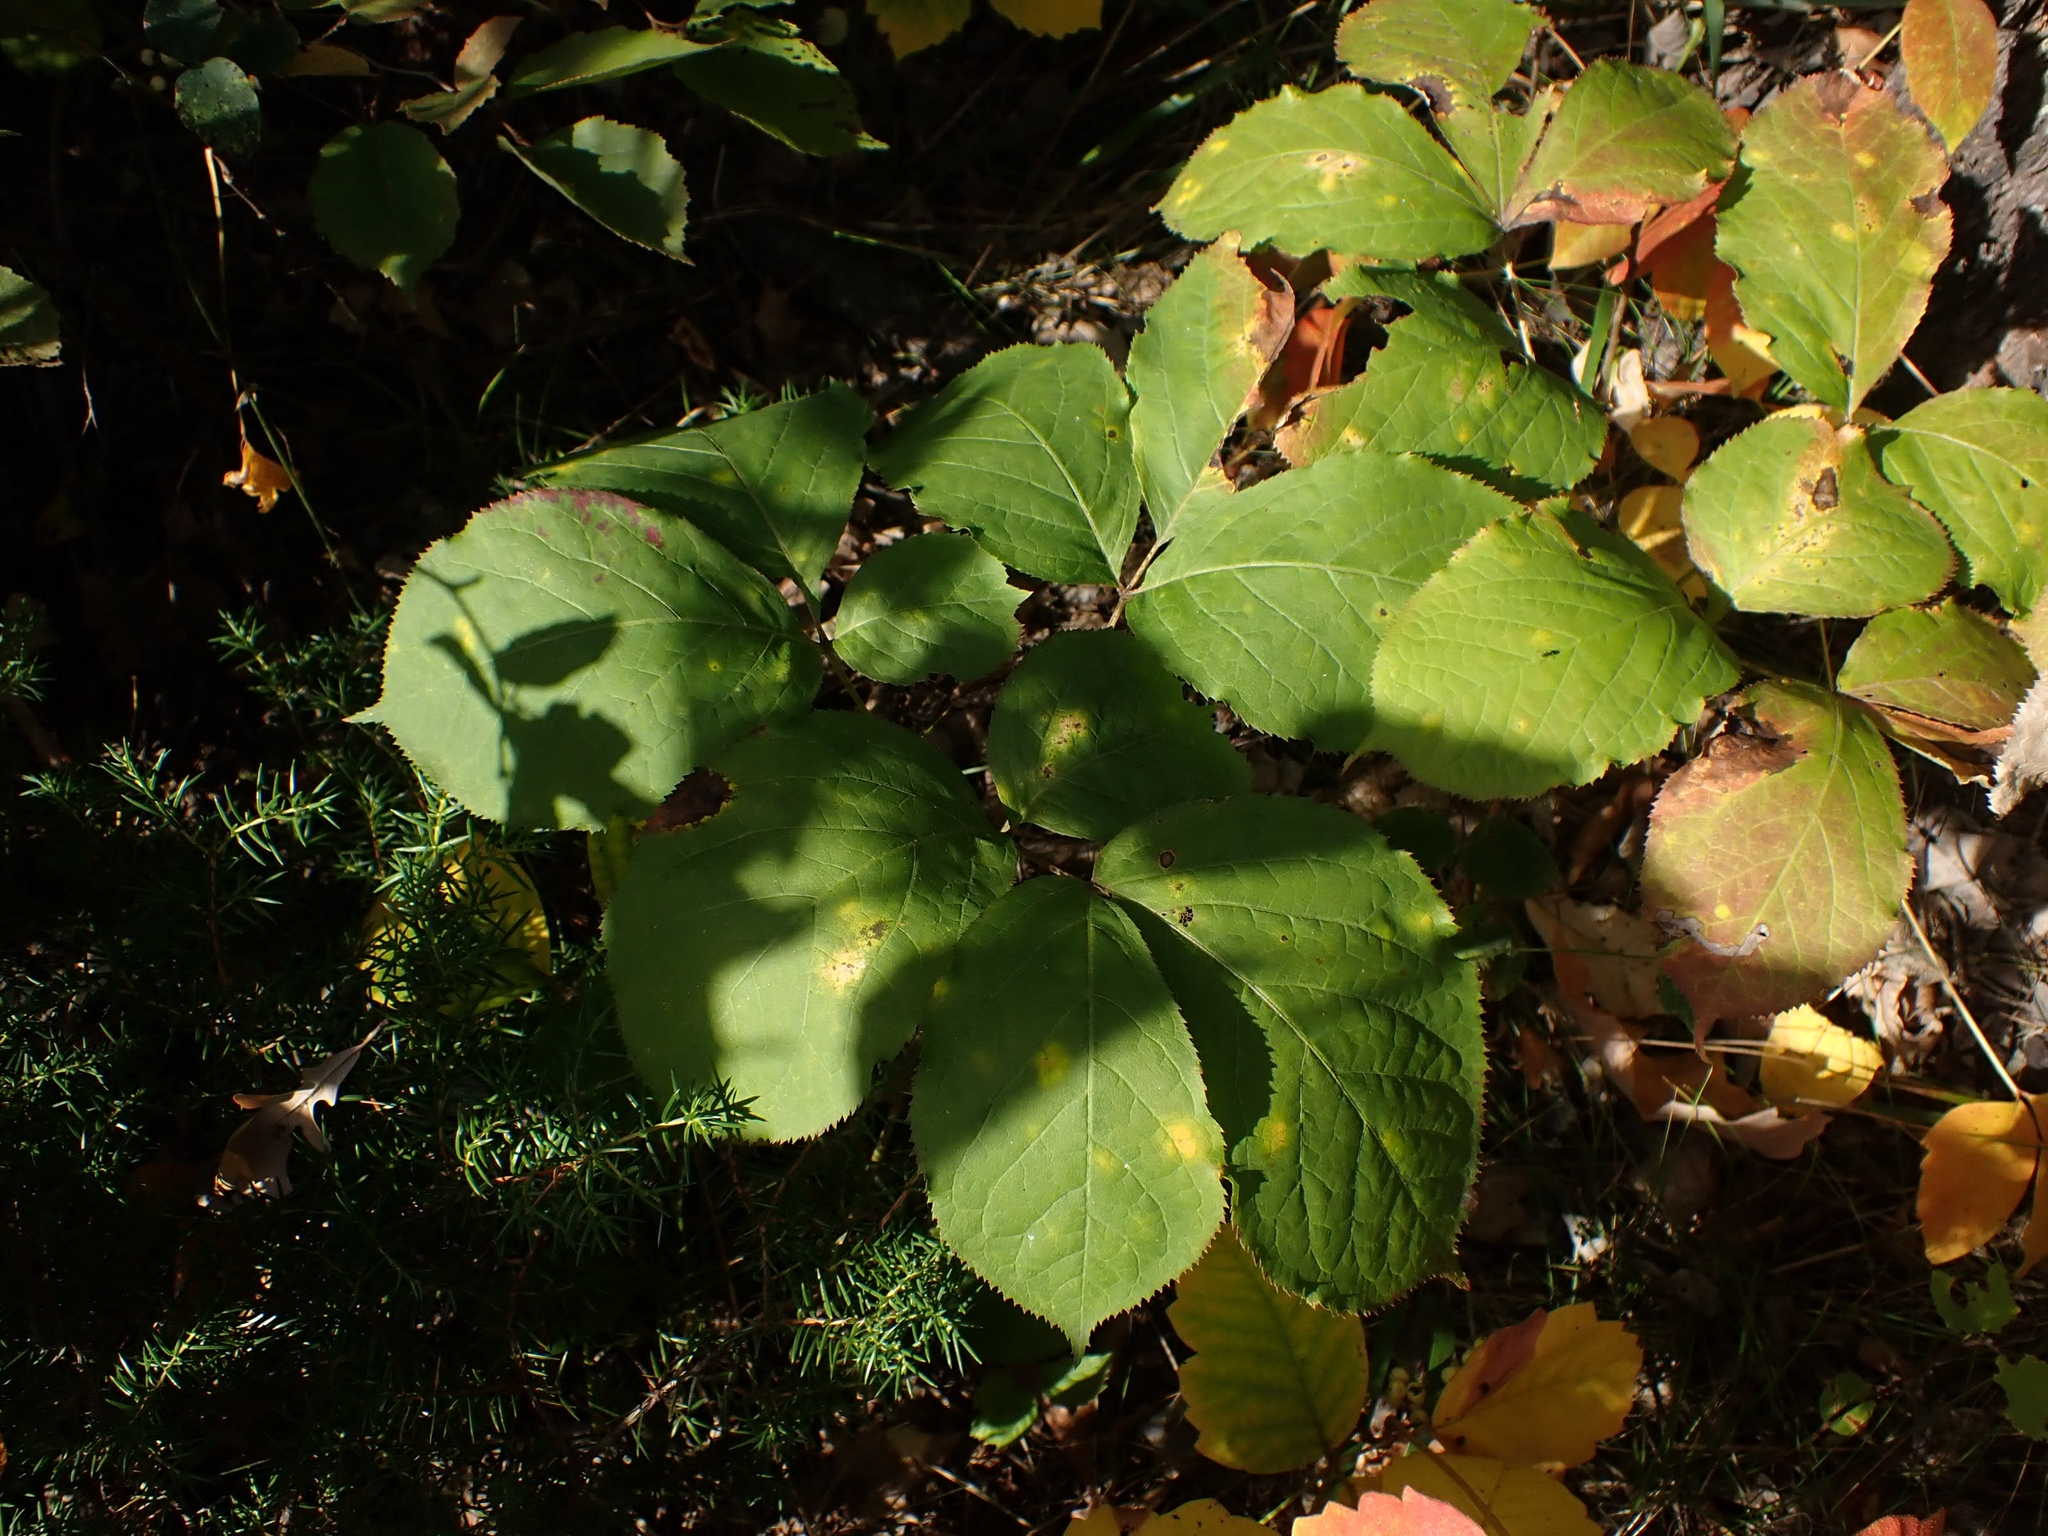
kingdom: Plantae
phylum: Tracheophyta
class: Magnoliopsida
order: Apiales
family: Araliaceae
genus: Aralia
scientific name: Aralia nudicaulis
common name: Wild sarsaparilla
